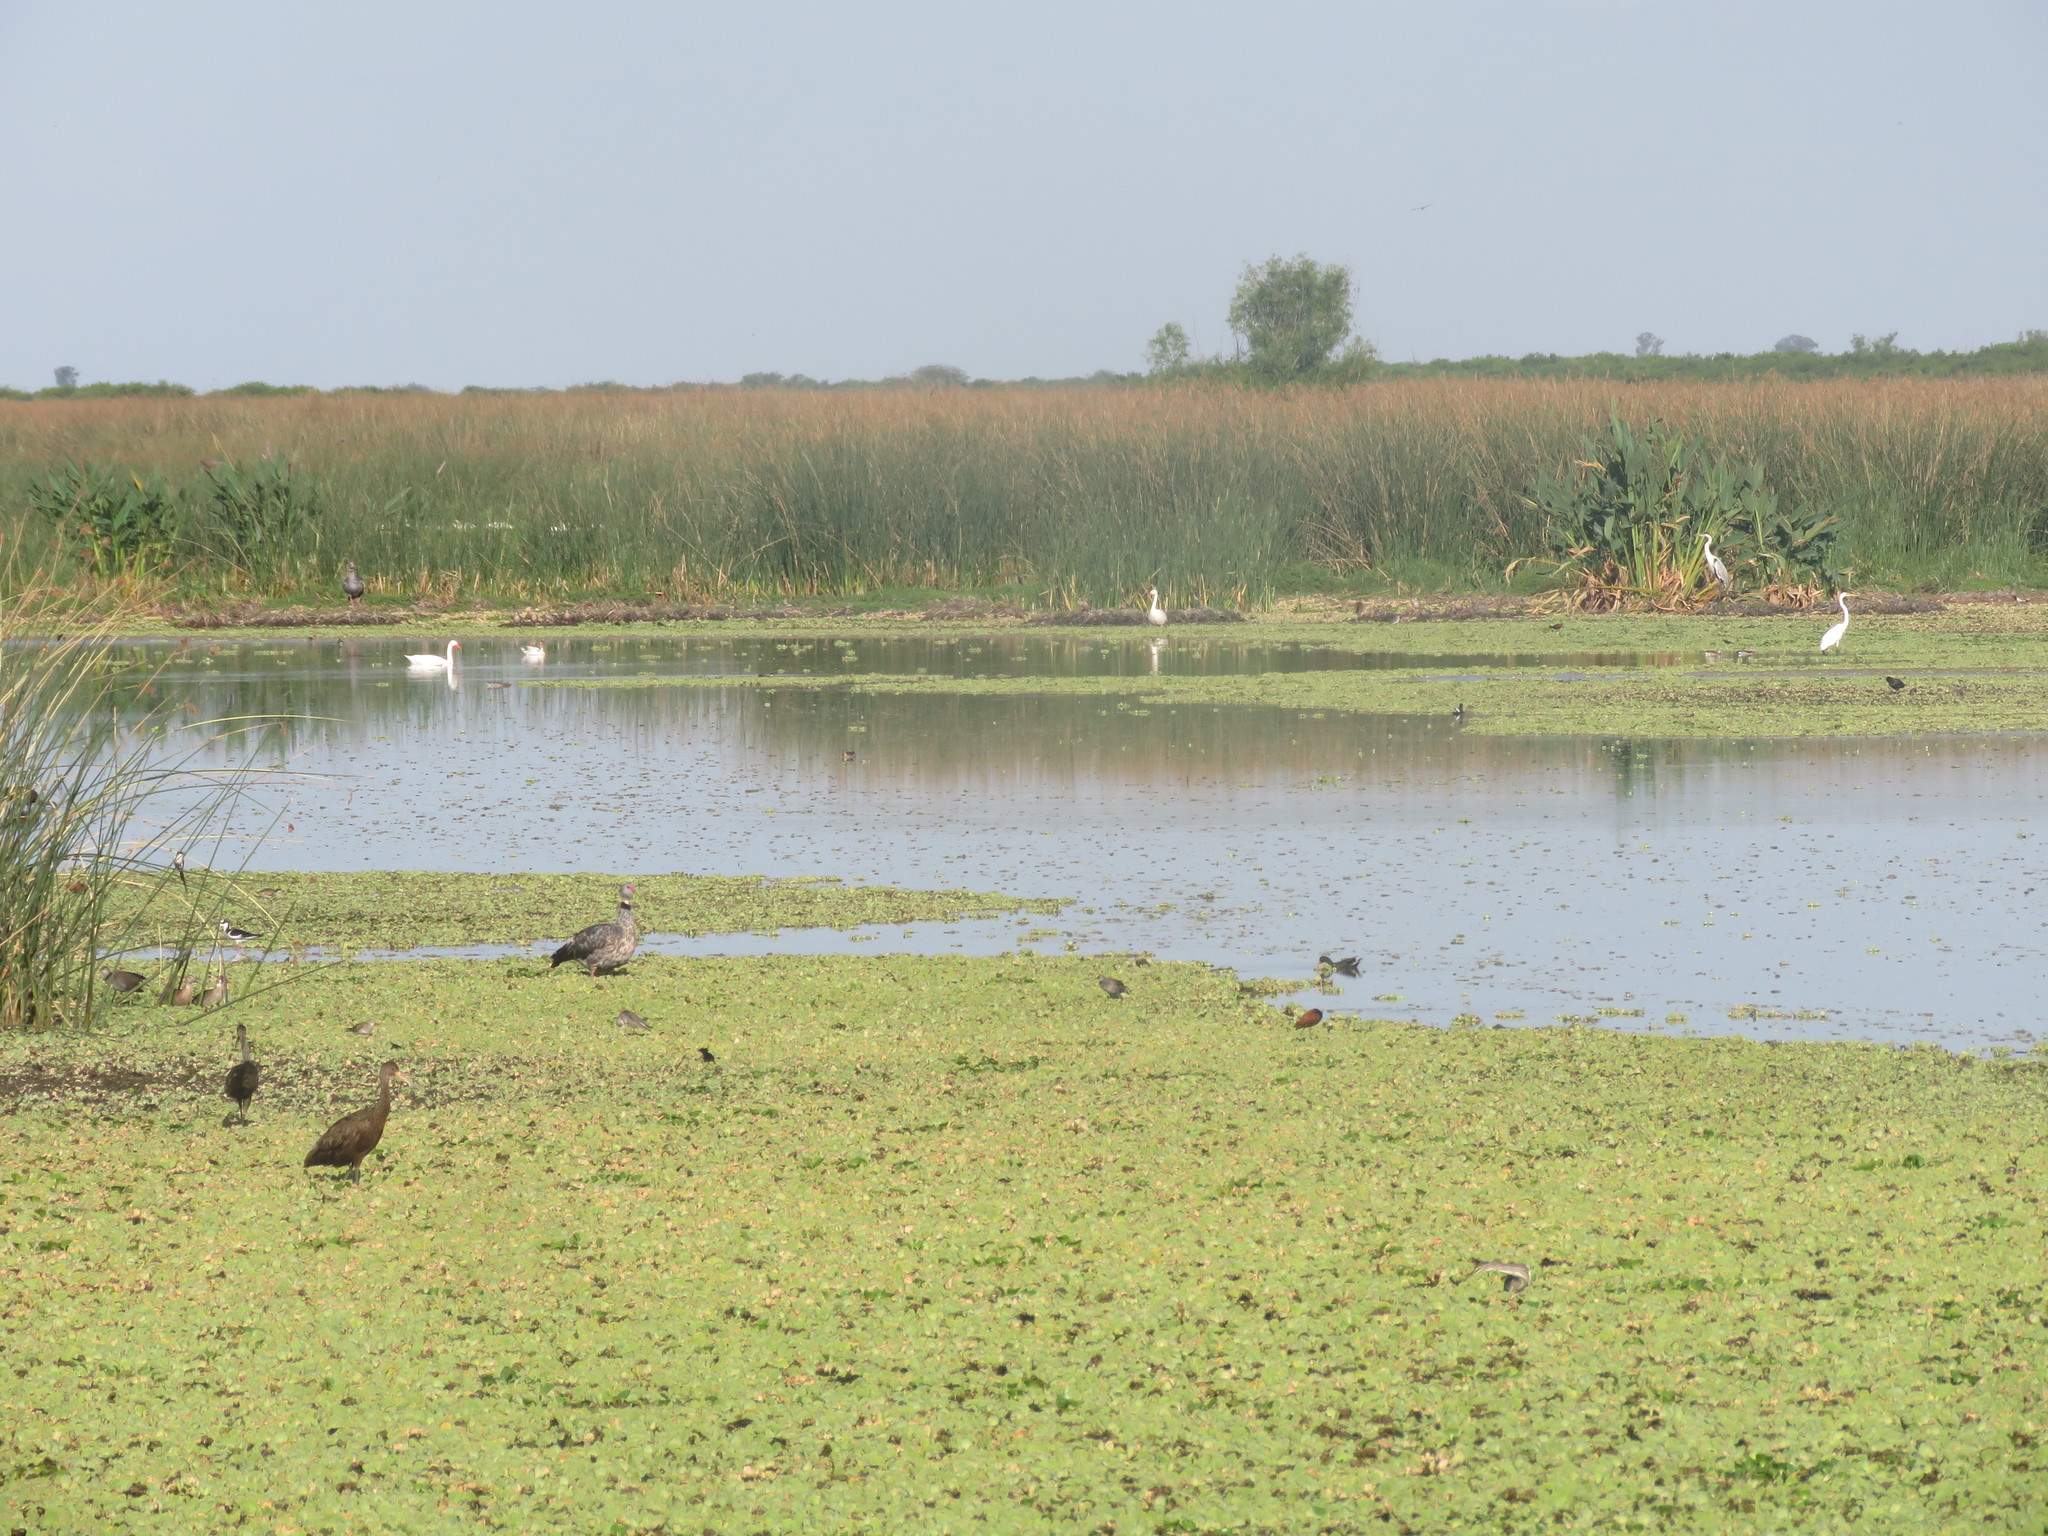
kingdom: Animalia
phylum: Chordata
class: Aves
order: Anseriformes
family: Anhimidae
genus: Chauna
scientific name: Chauna torquata
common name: Southern screamer
